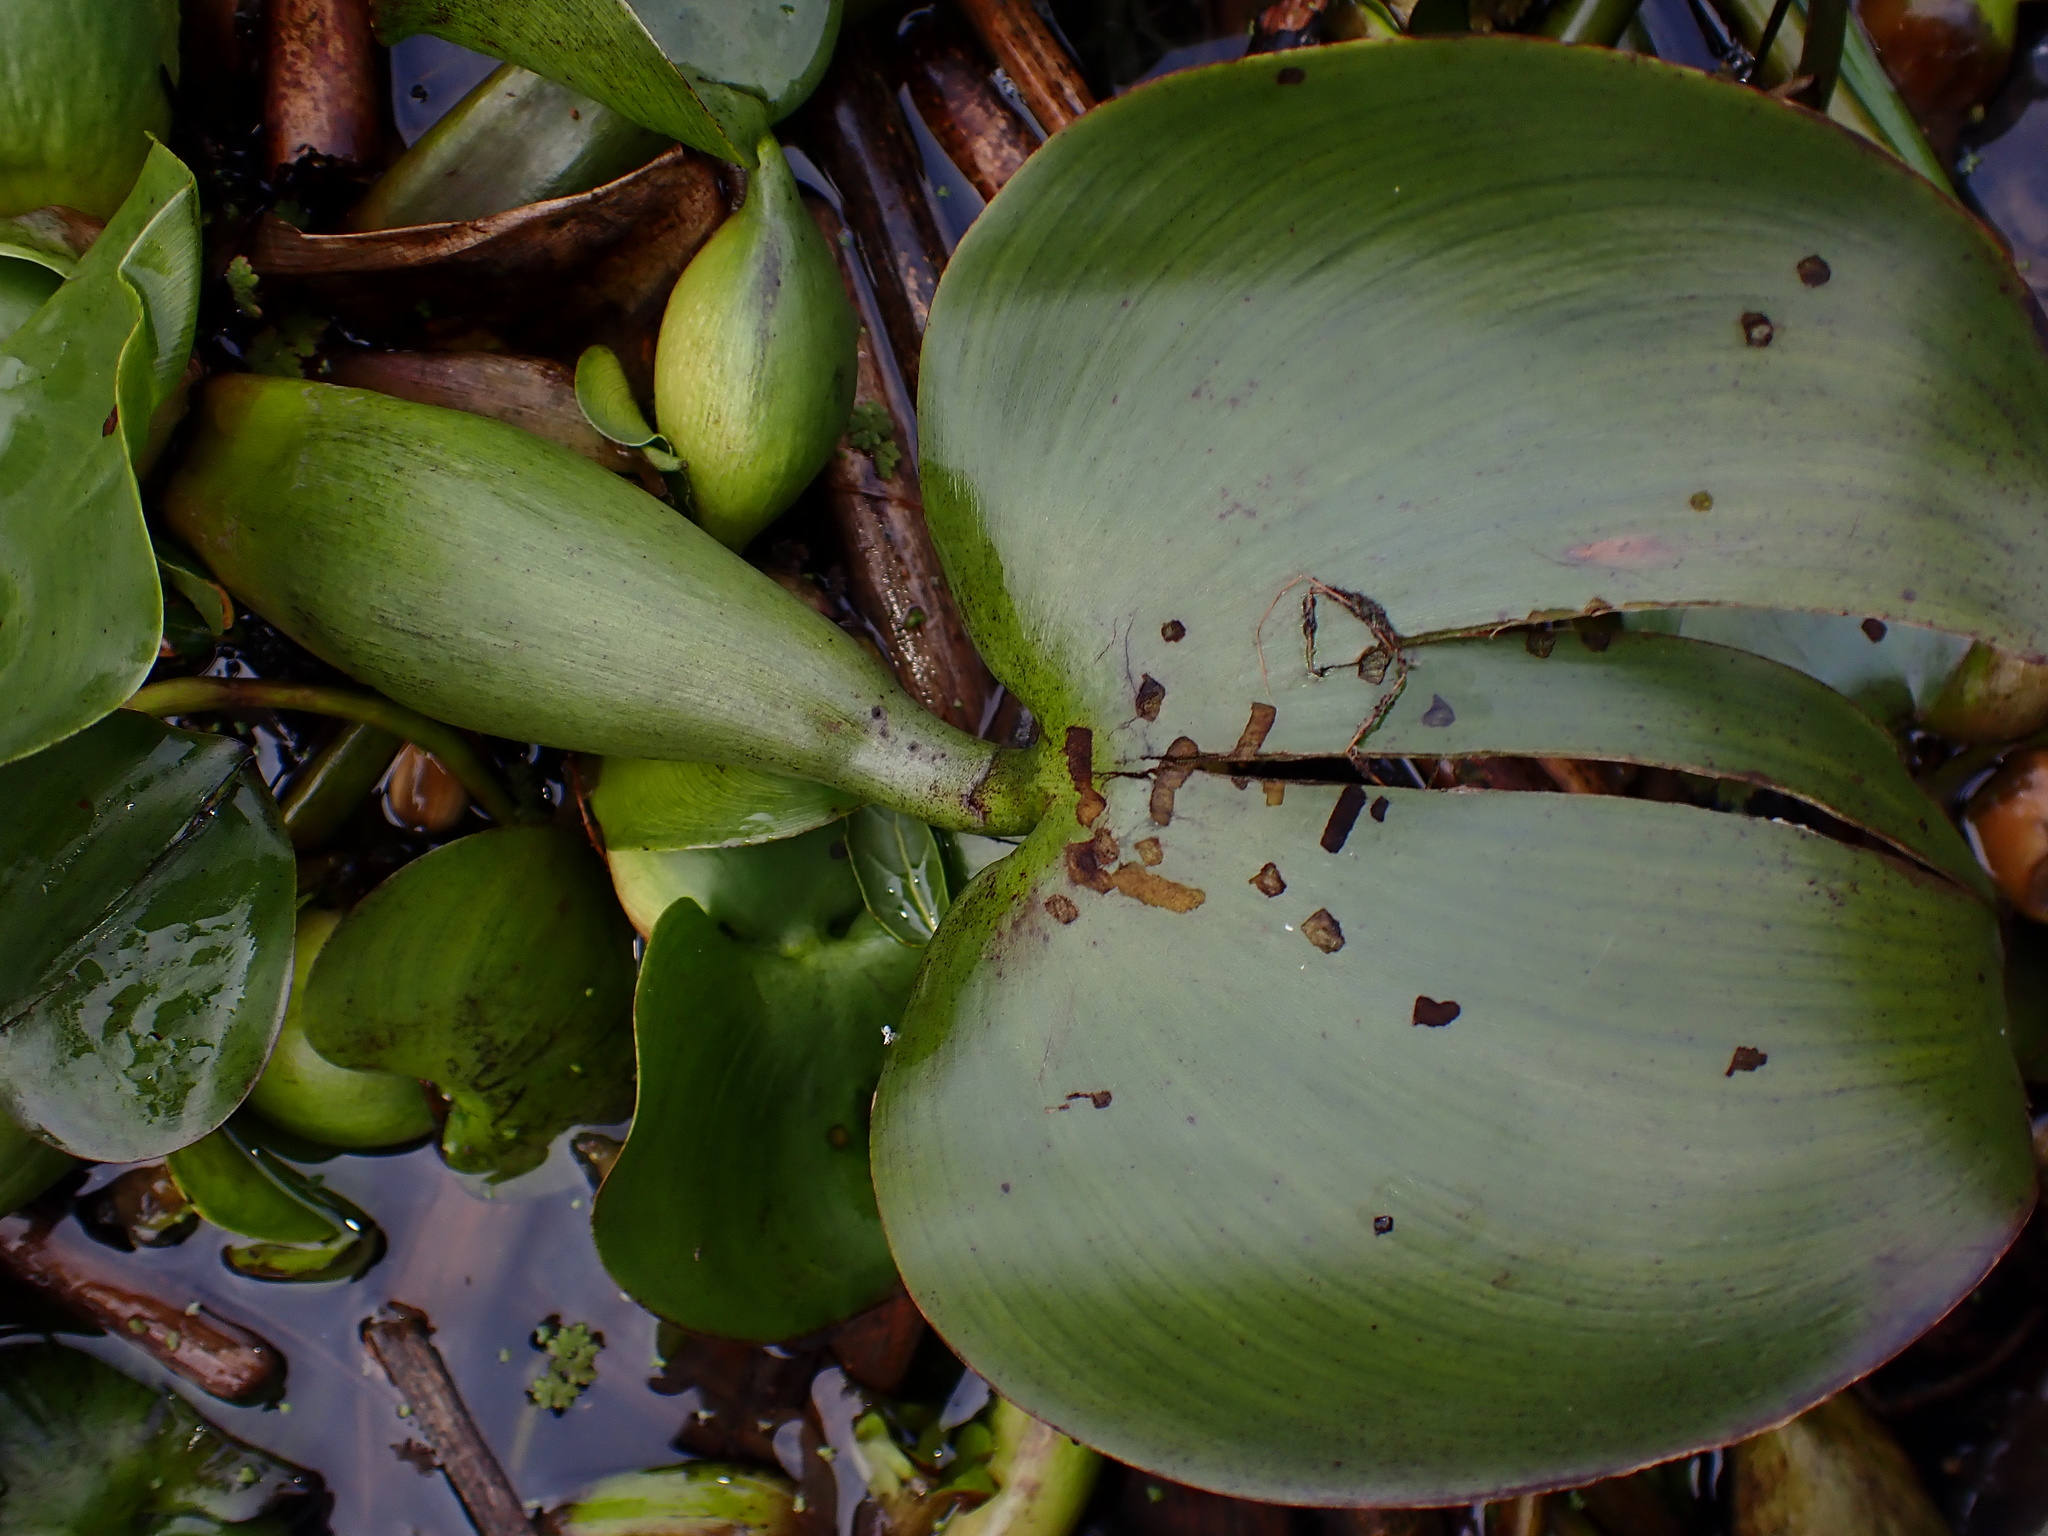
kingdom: Plantae
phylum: Tracheophyta
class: Liliopsida
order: Commelinales
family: Pontederiaceae
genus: Pontederia
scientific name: Pontederia crassipes
